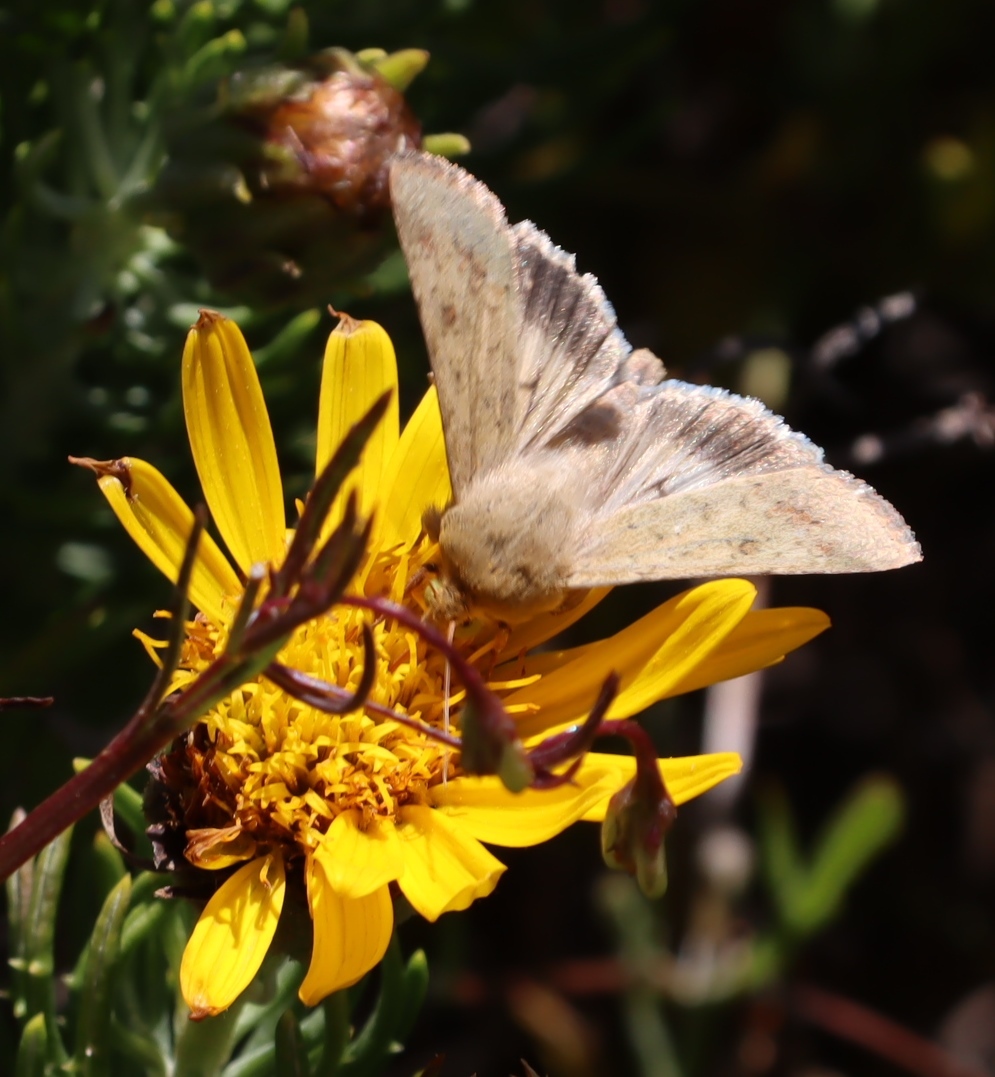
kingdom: Animalia
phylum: Arthropoda
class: Insecta
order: Lepidoptera
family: Noctuidae
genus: Helicoverpa
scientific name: Helicoverpa armigera
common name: Cotton bollworm
